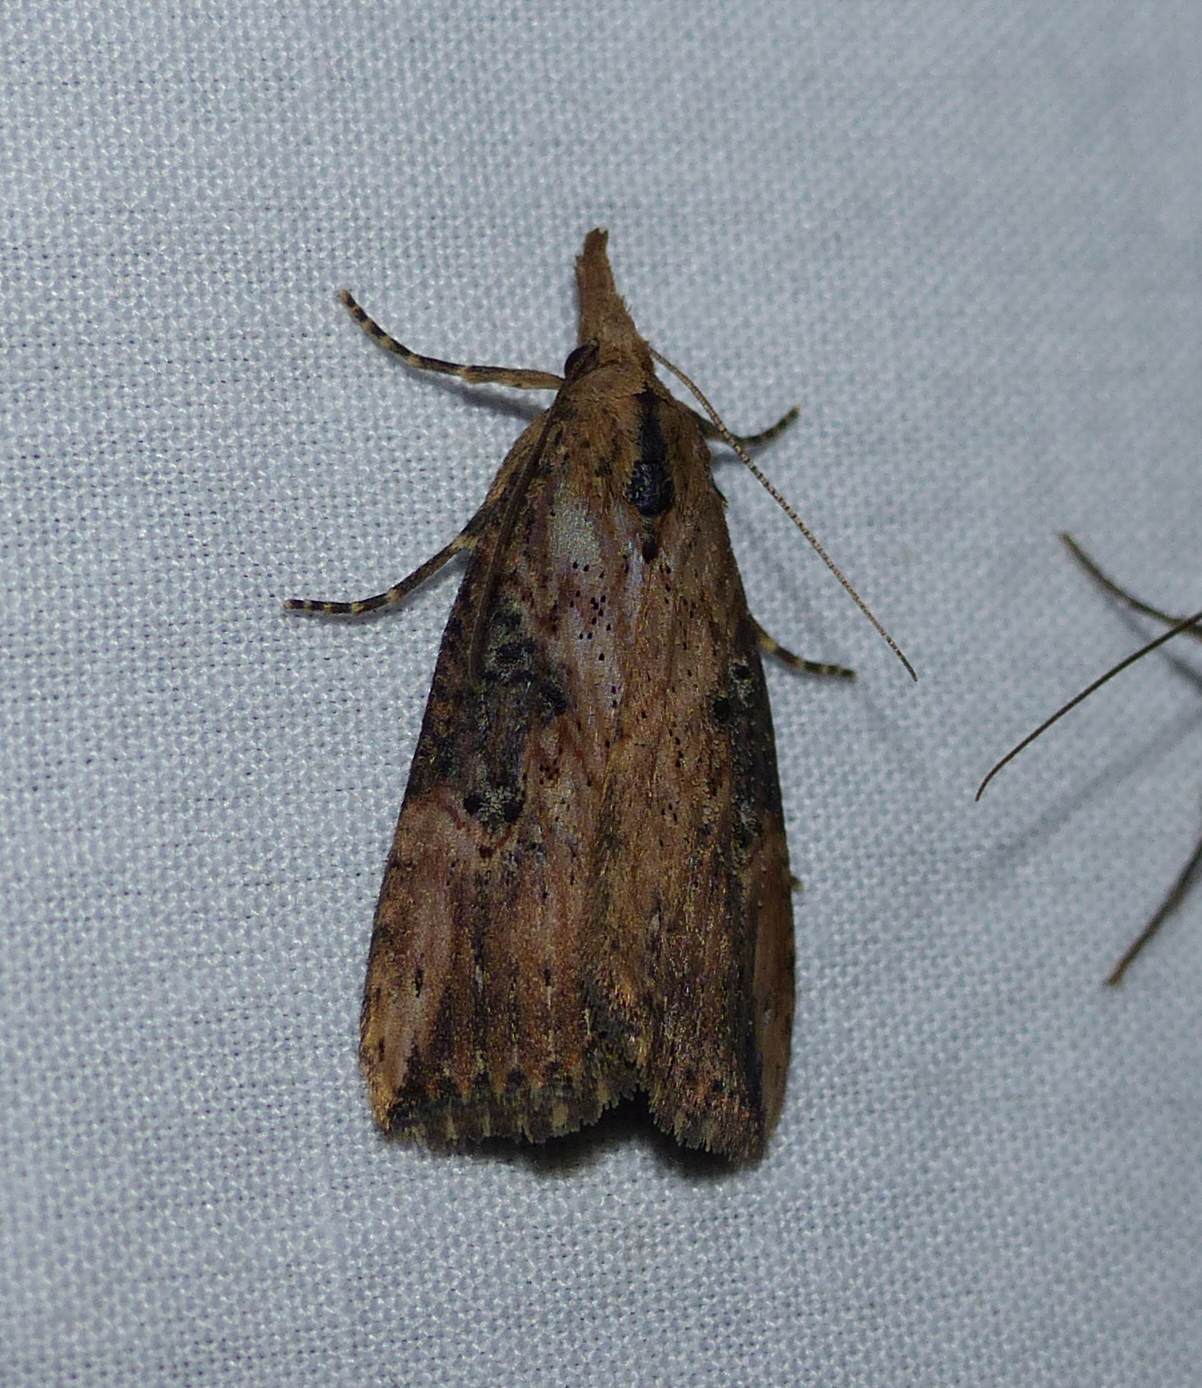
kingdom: Animalia
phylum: Arthropoda
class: Insecta
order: Lepidoptera
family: Erebidae
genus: Hypena
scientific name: Hypena humuli
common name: Hop vine snout
